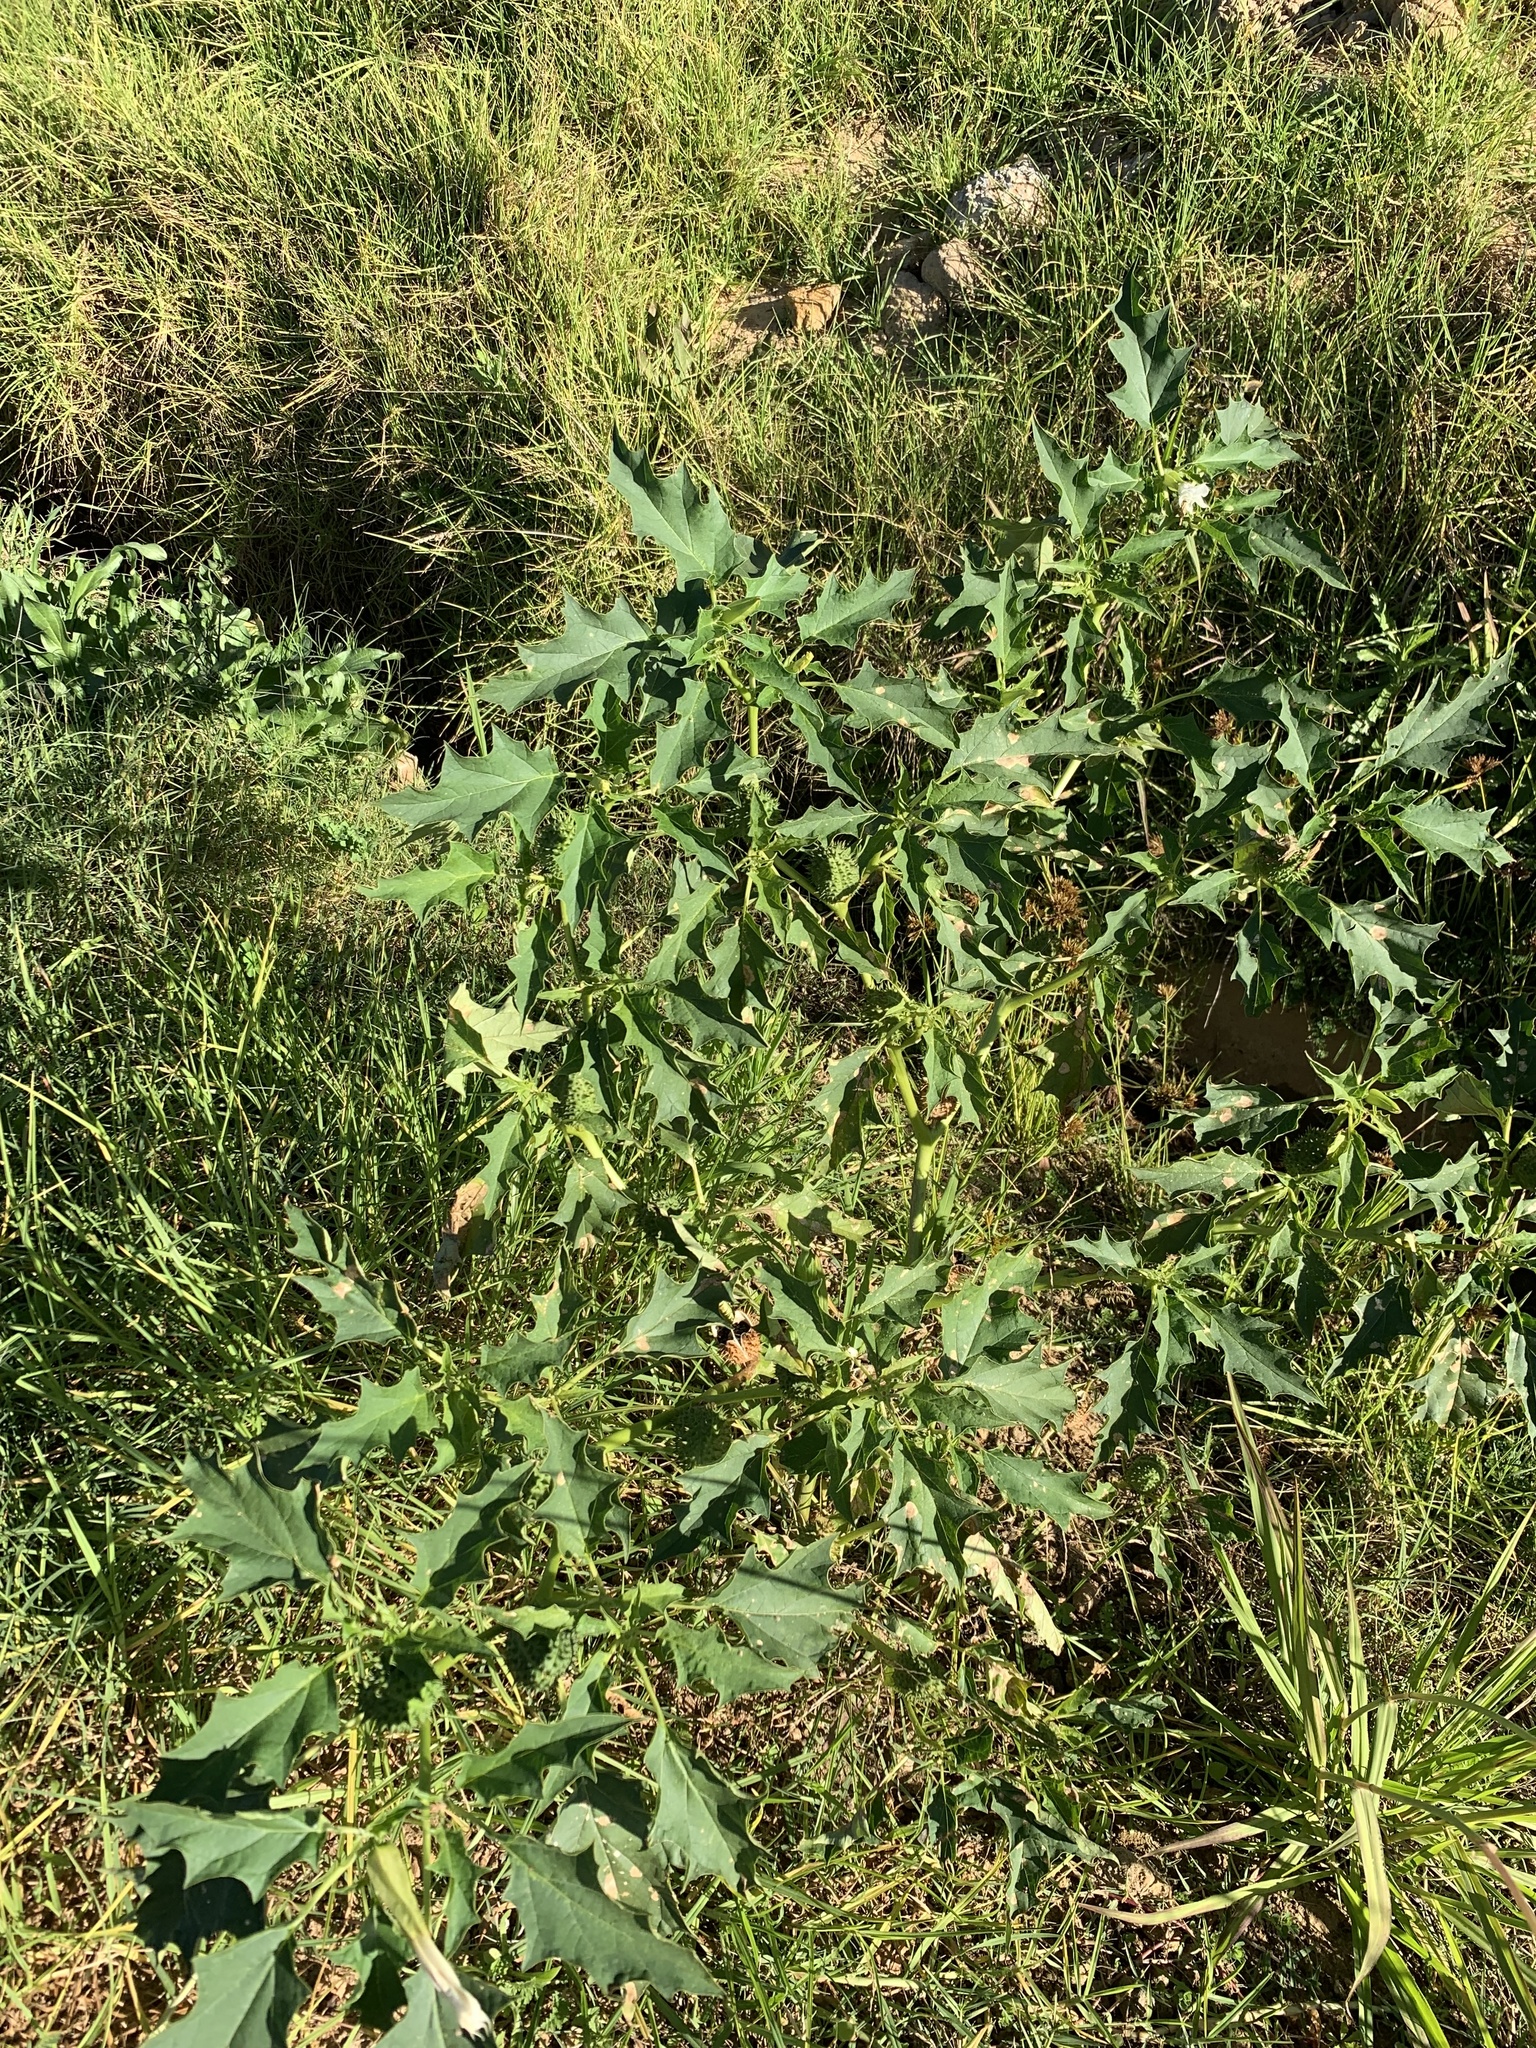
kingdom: Plantae
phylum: Tracheophyta
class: Magnoliopsida
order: Solanales
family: Solanaceae
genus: Datura
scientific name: Datura stramonium
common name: Thorn-apple
